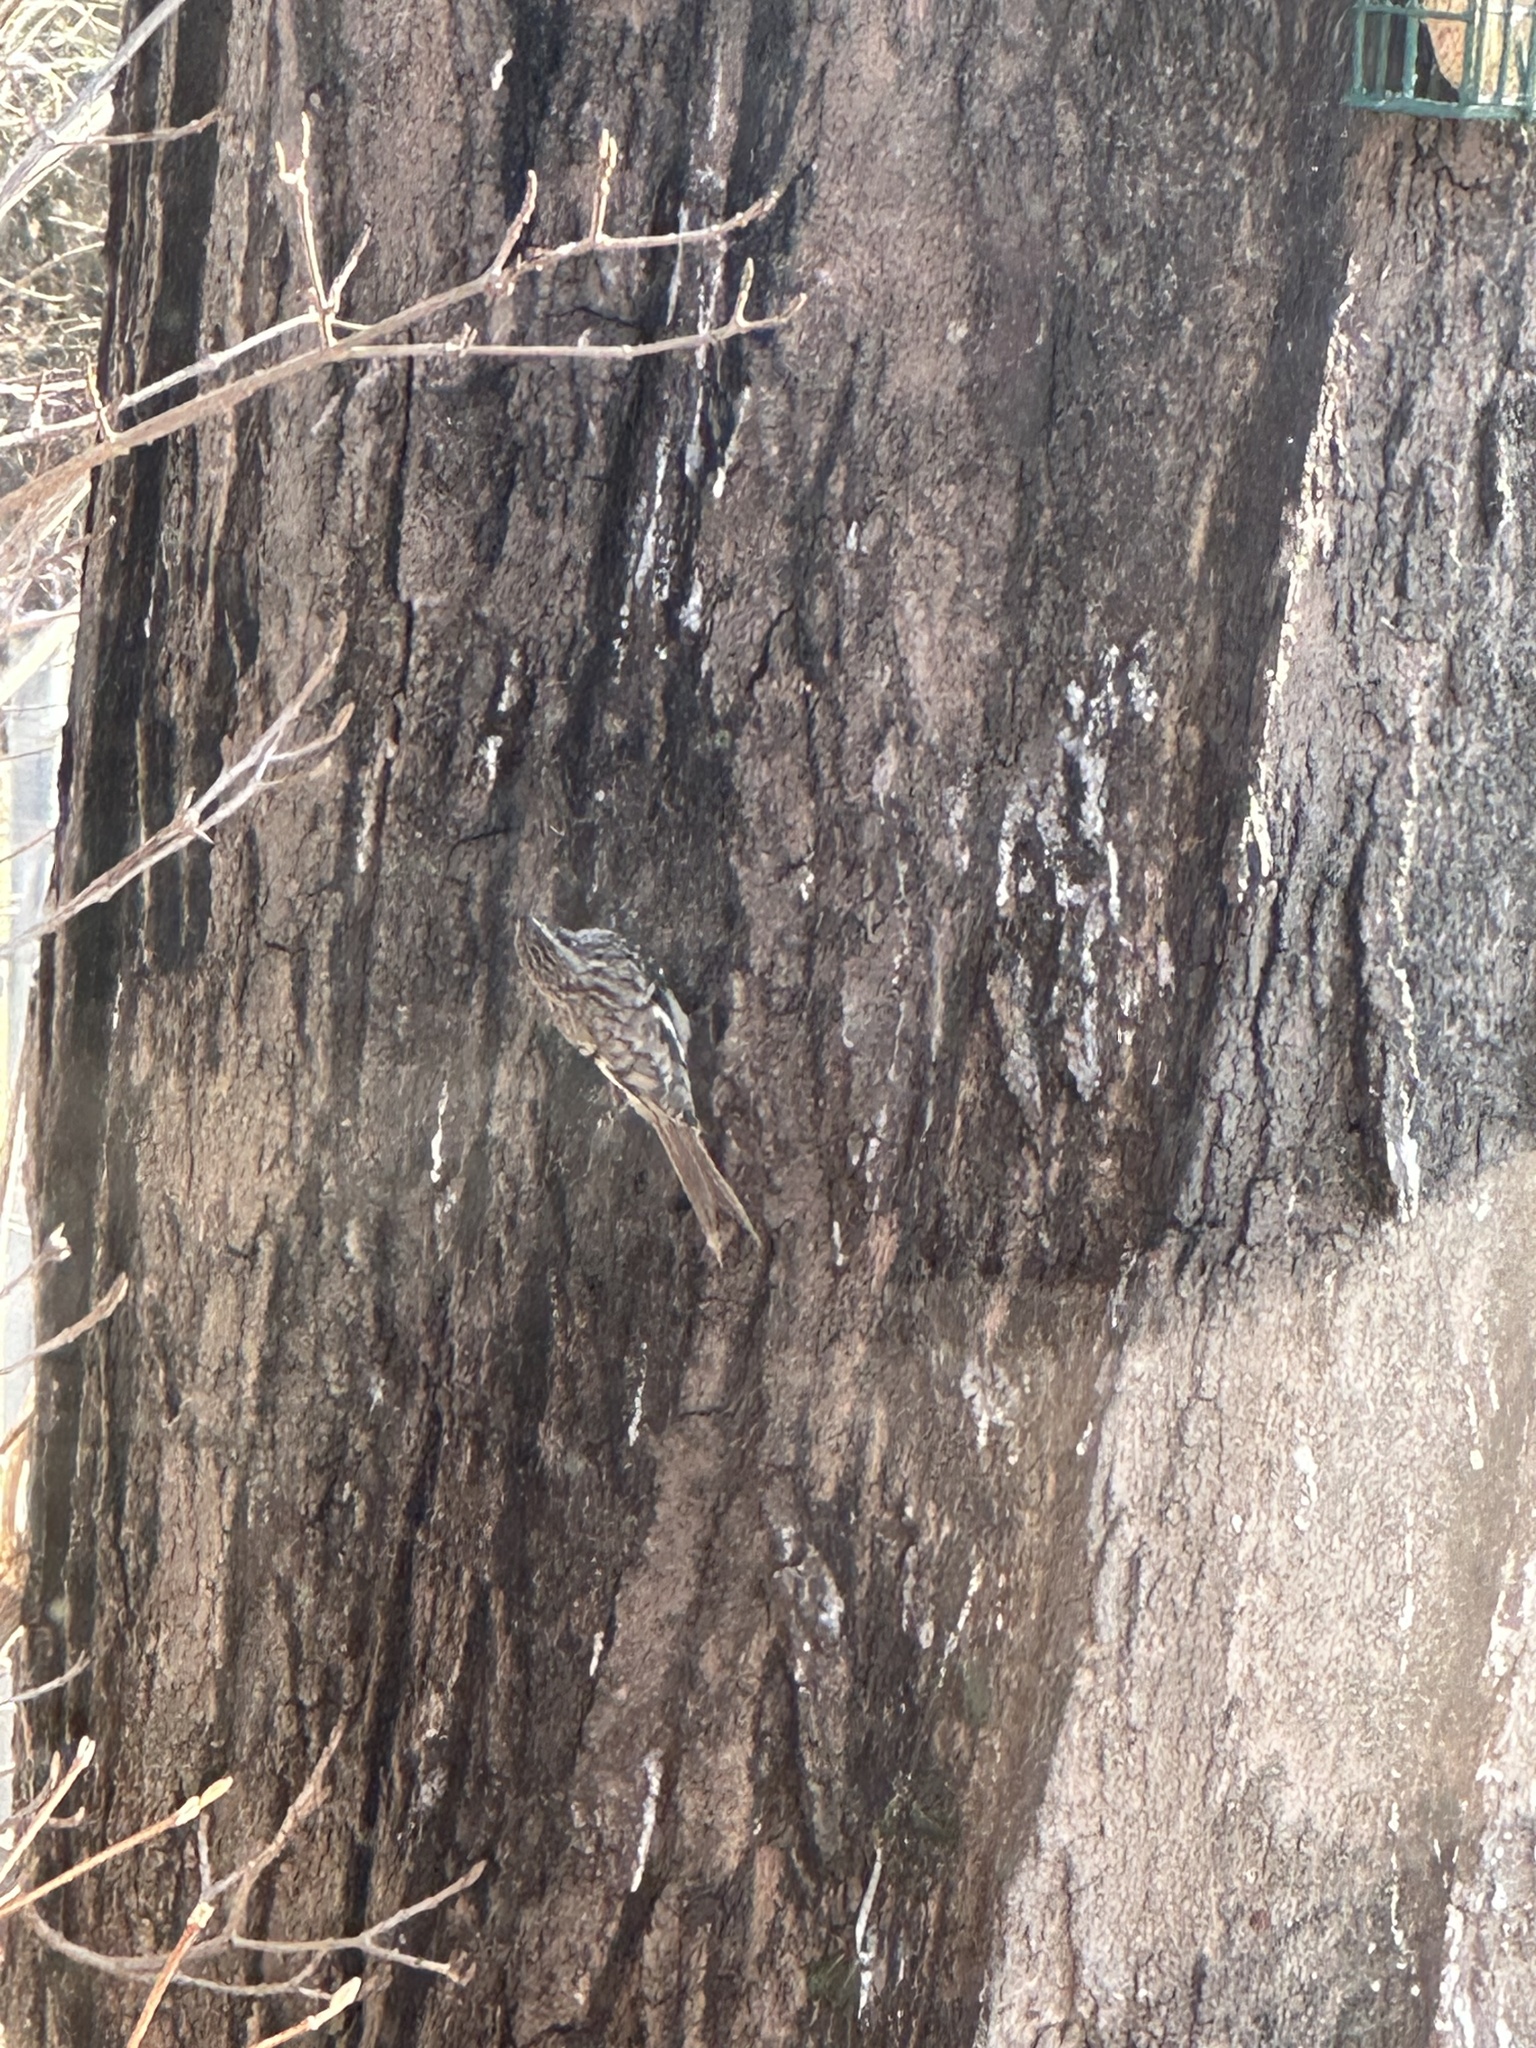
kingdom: Animalia
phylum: Chordata
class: Aves
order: Passeriformes
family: Certhiidae
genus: Certhia
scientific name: Certhia americana
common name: Brown creeper
